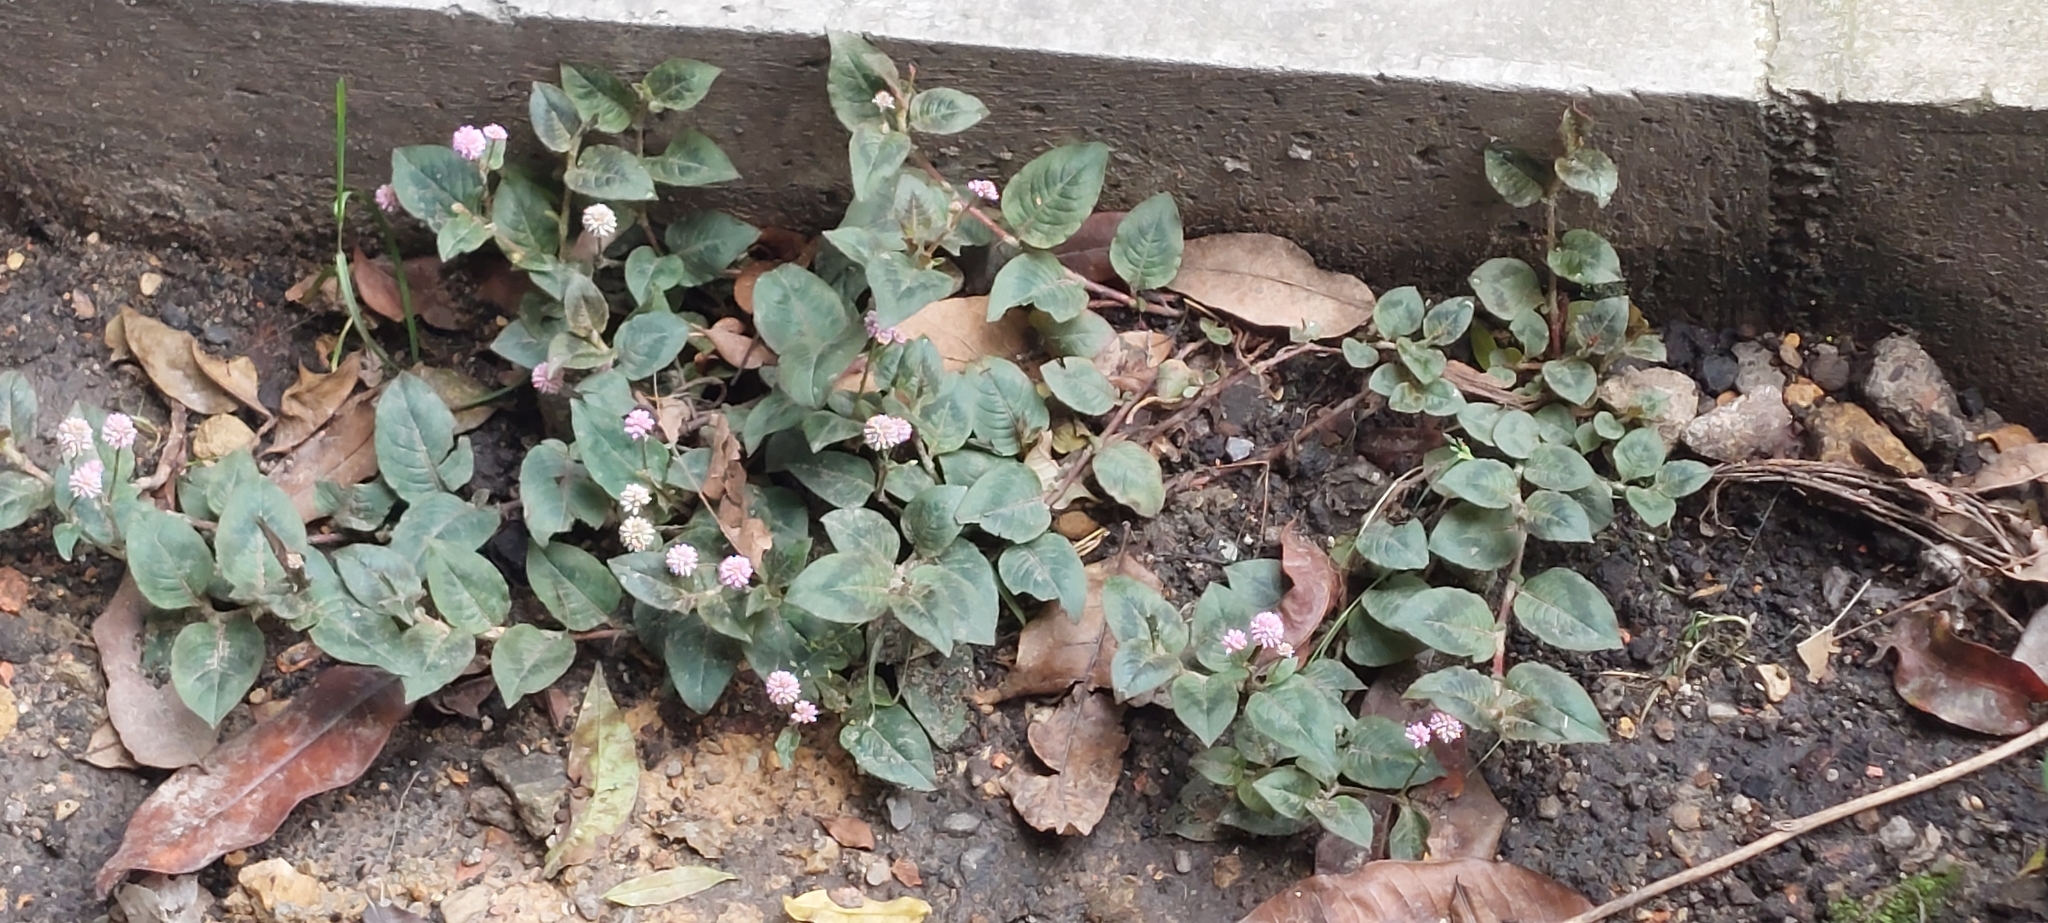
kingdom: Plantae
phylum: Tracheophyta
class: Magnoliopsida
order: Caryophyllales
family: Polygonaceae
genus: Persicaria
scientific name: Persicaria capitata
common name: Pinkhead smartweed
